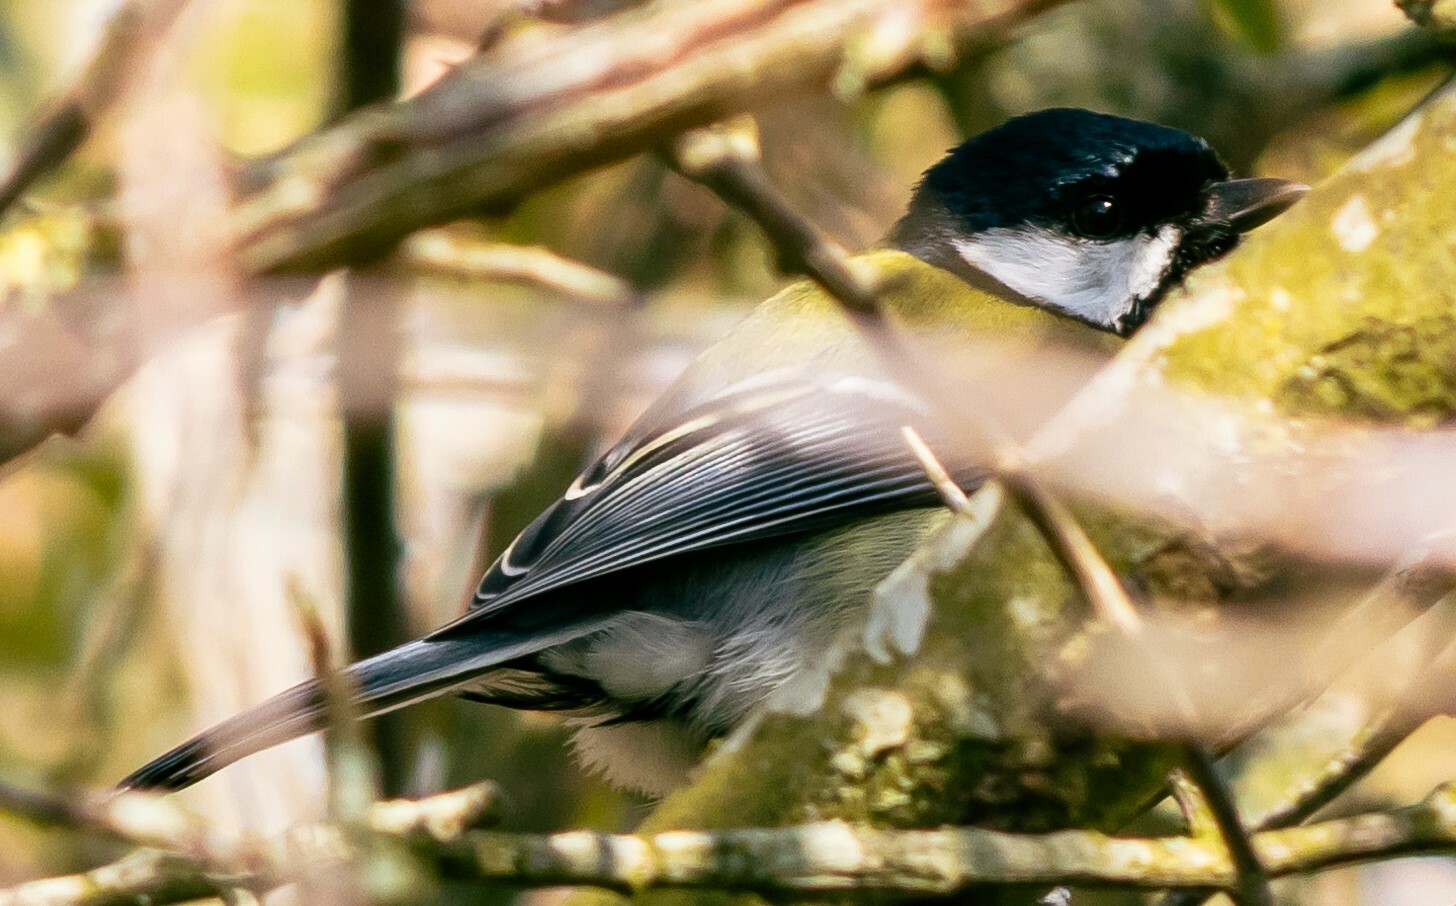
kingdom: Animalia
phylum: Chordata
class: Aves
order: Passeriformes
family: Paridae
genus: Parus
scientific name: Parus major
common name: Great tit
